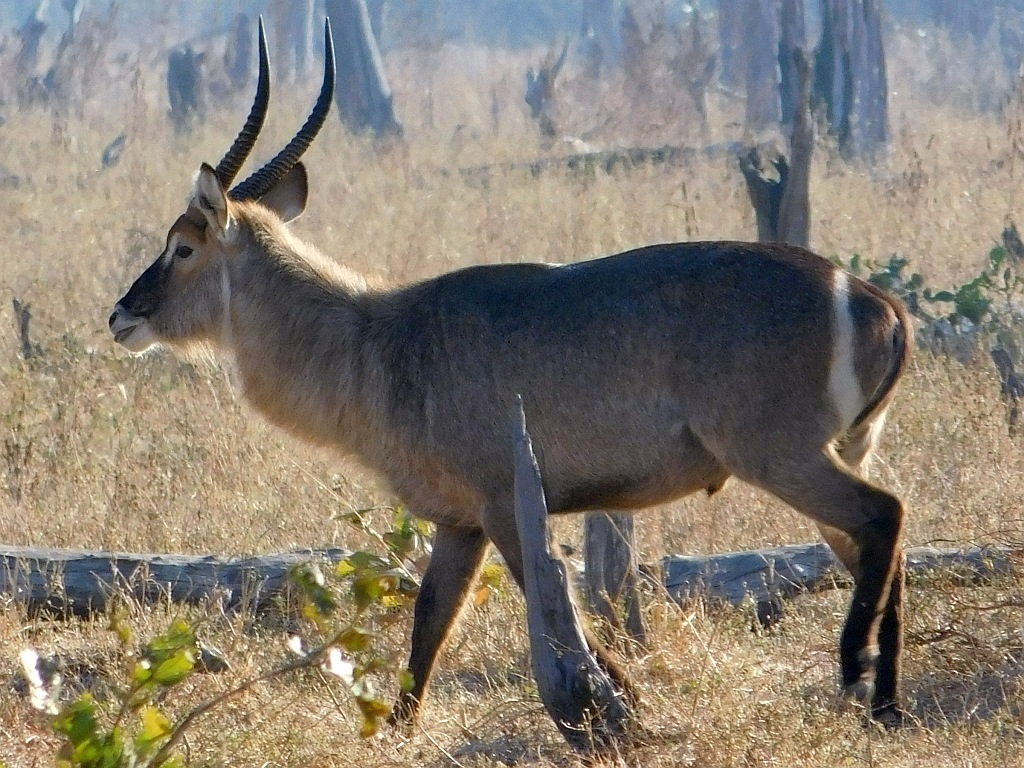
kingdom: Animalia
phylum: Chordata
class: Mammalia
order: Artiodactyla
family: Bovidae
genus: Kobus
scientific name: Kobus ellipsiprymnus
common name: Waterbuck
